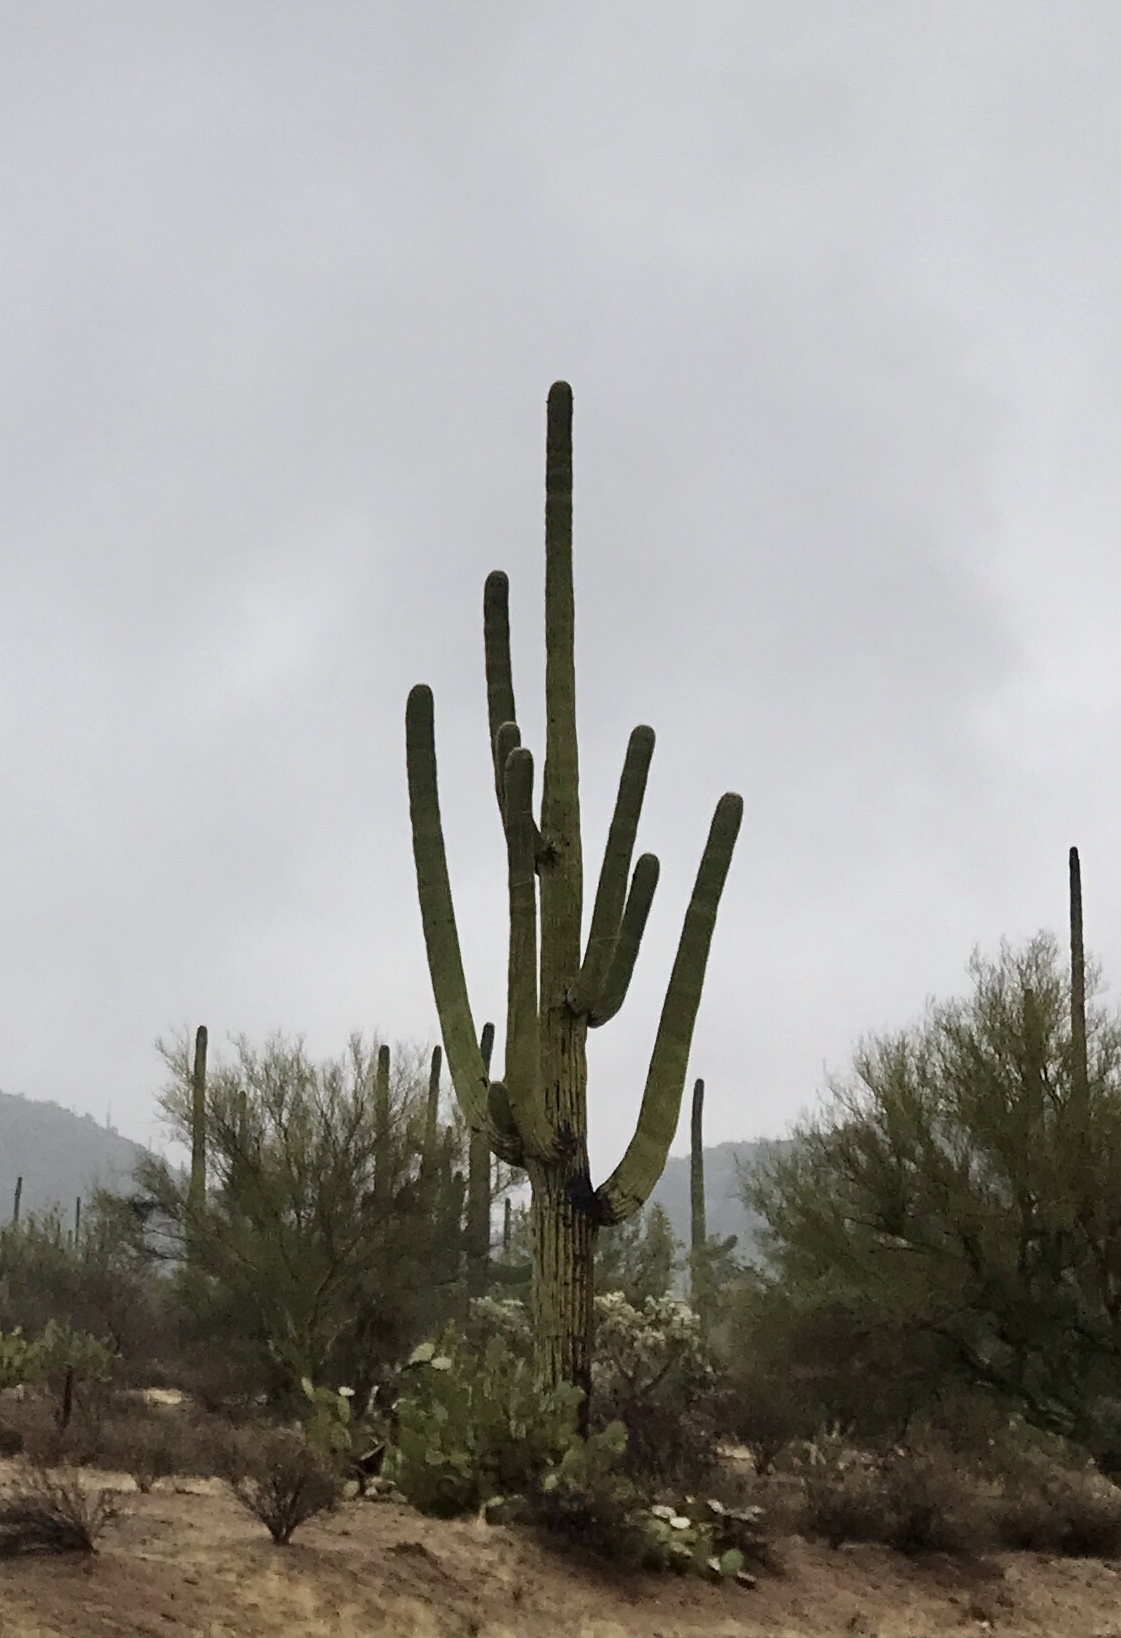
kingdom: Plantae
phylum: Tracheophyta
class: Magnoliopsida
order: Caryophyllales
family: Cactaceae
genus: Carnegiea
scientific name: Carnegiea gigantea
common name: Saguaro
